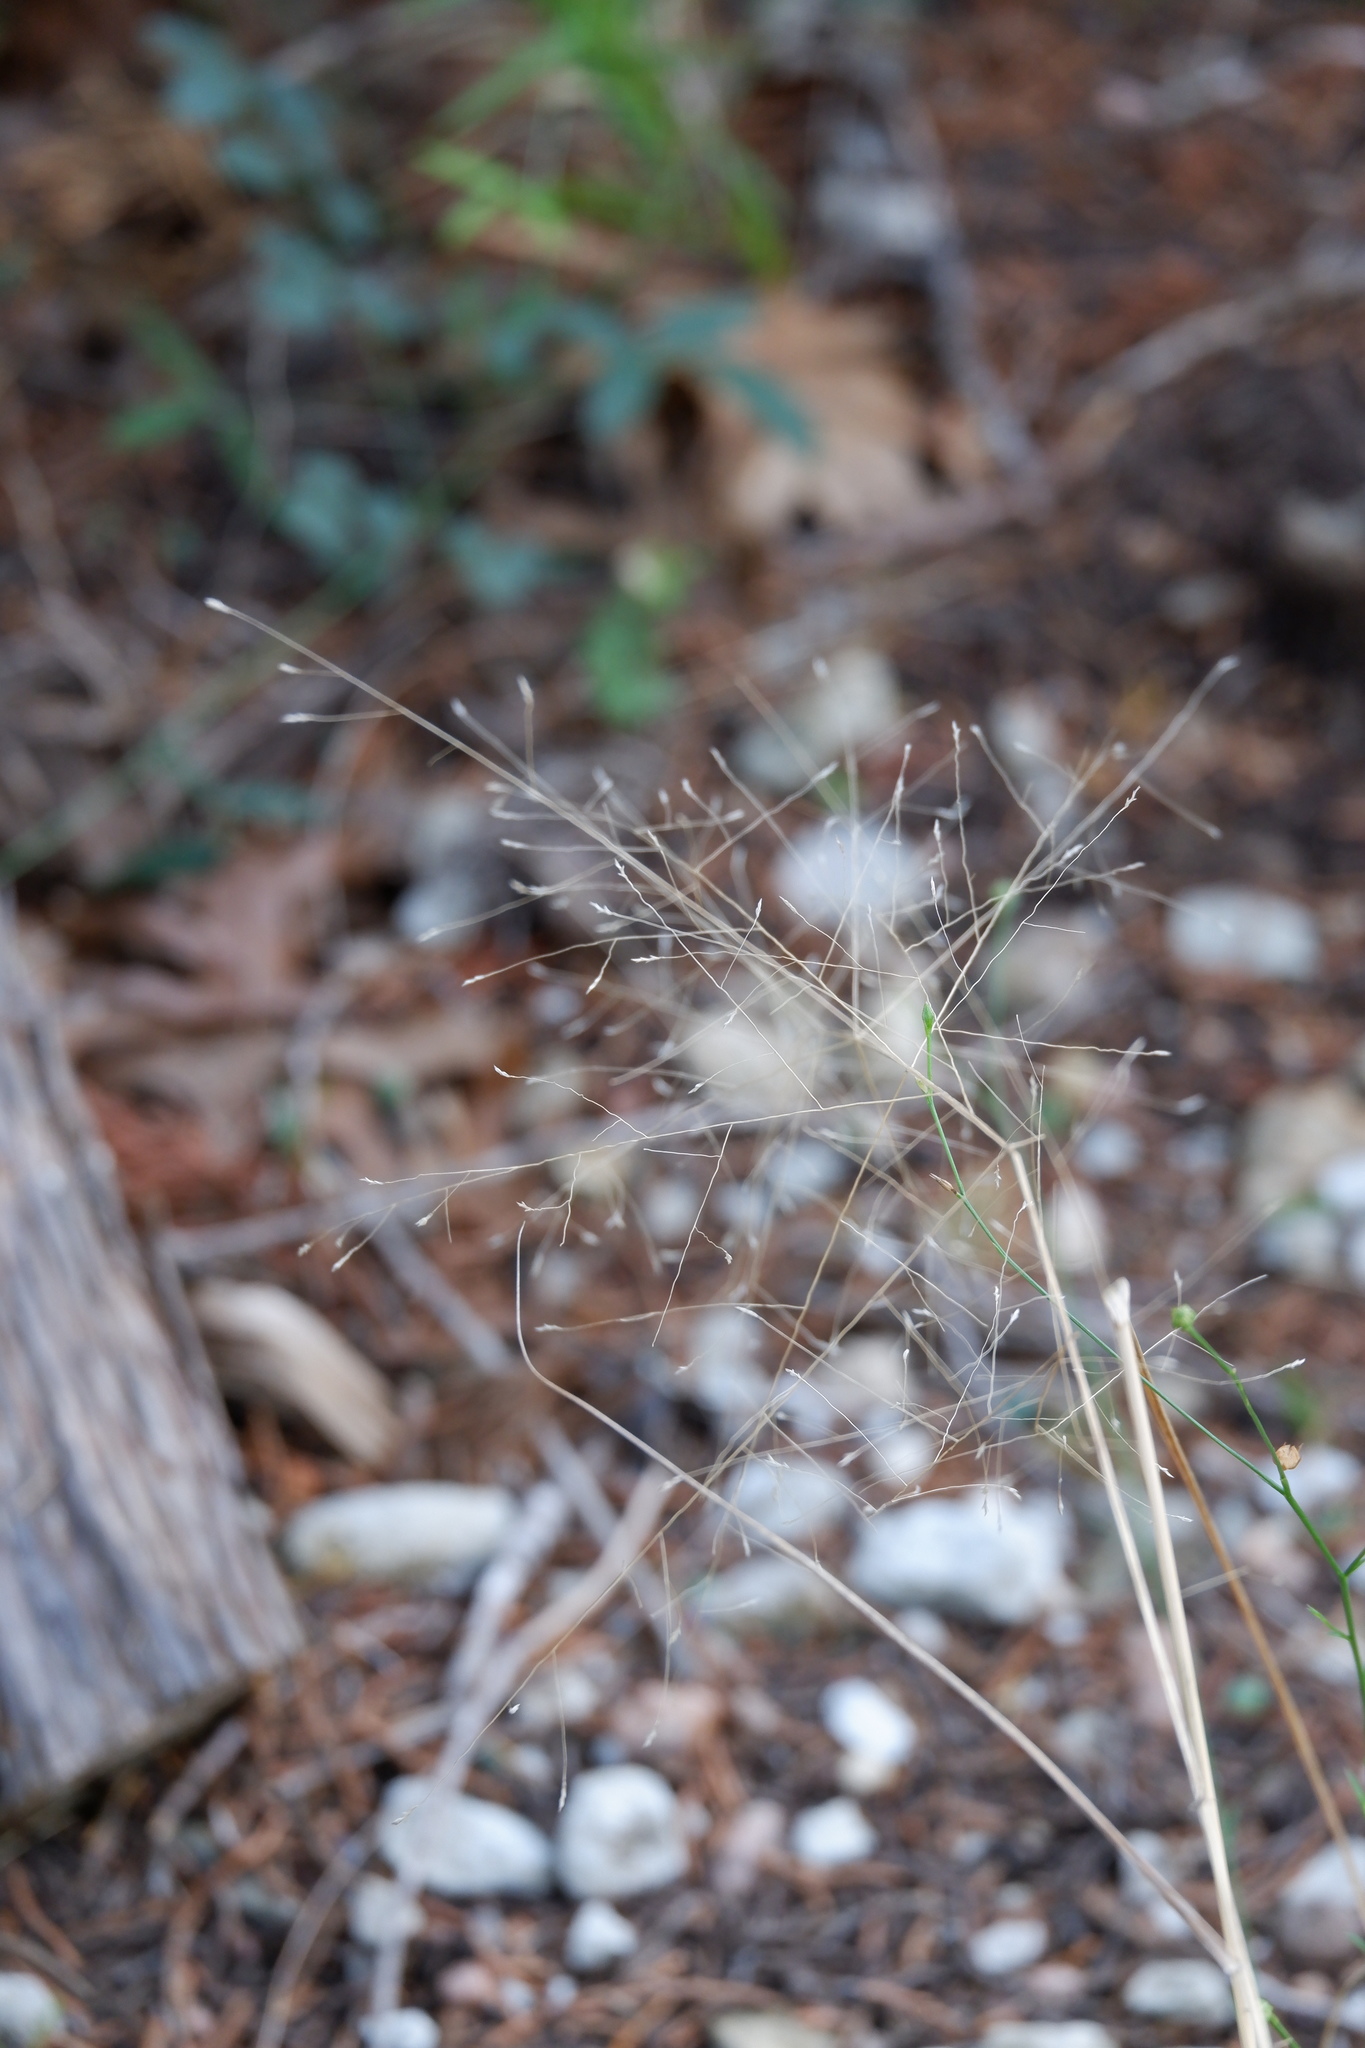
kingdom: Plantae
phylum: Tracheophyta
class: Liliopsida
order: Poales
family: Poaceae
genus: Eragrostis
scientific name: Eragrostis intermedia
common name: Plains love grass
